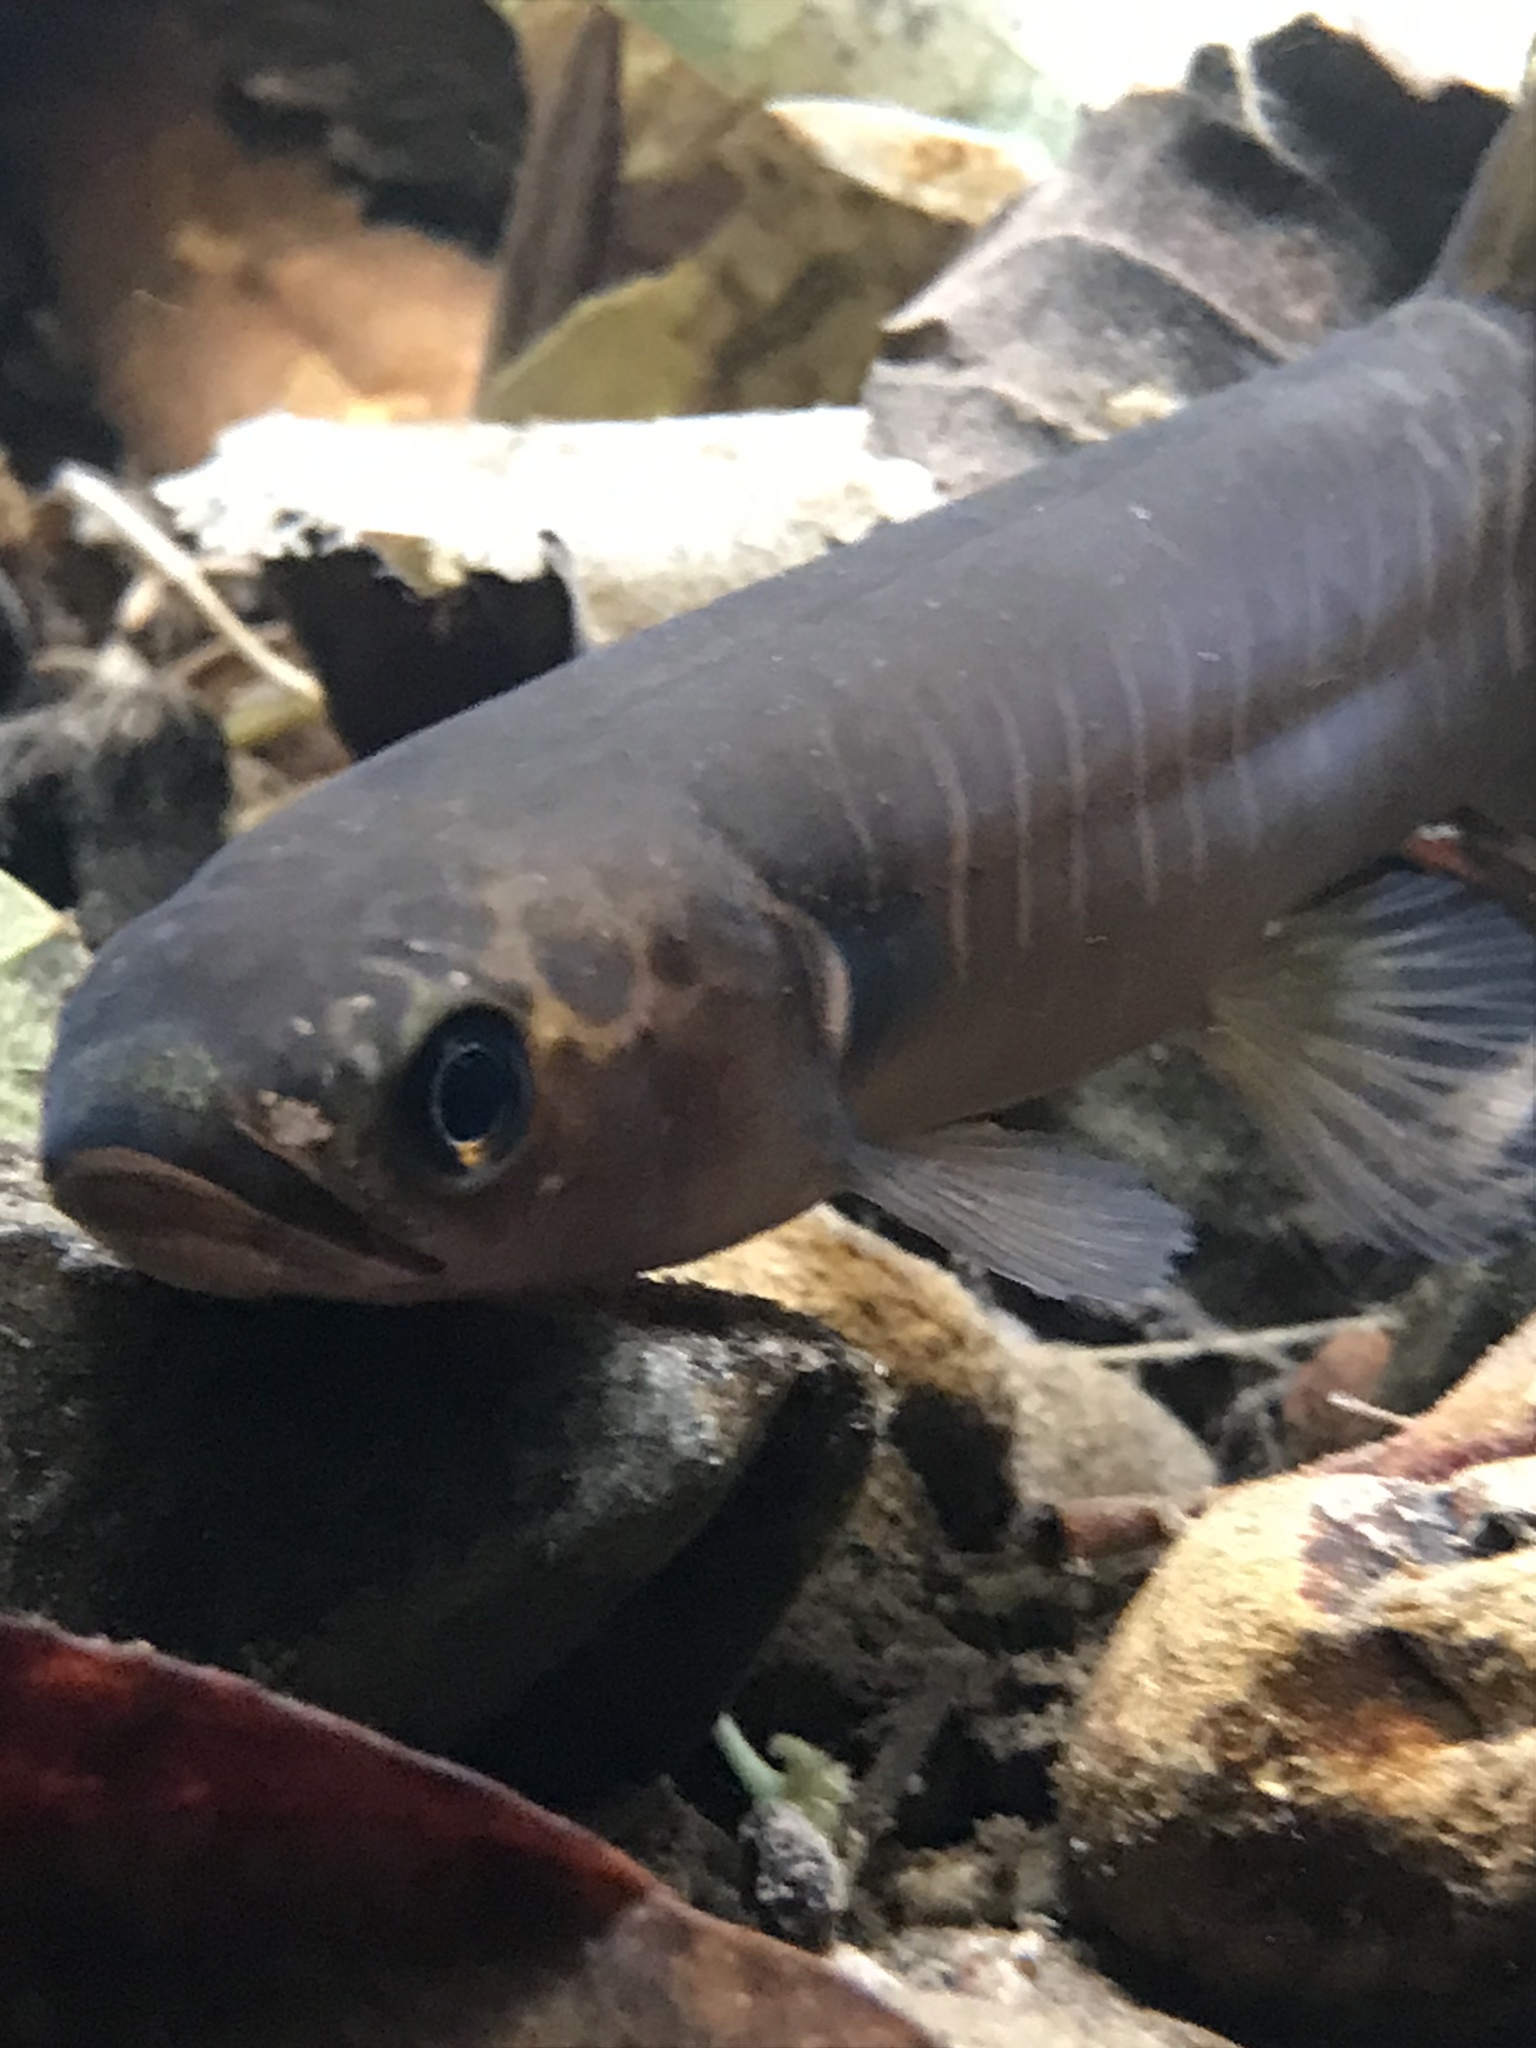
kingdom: Animalia
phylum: Chordata
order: Osmeriformes
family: Galaxiidae
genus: Galaxias
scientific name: Galaxias fasciatus
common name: Banded kokopu
